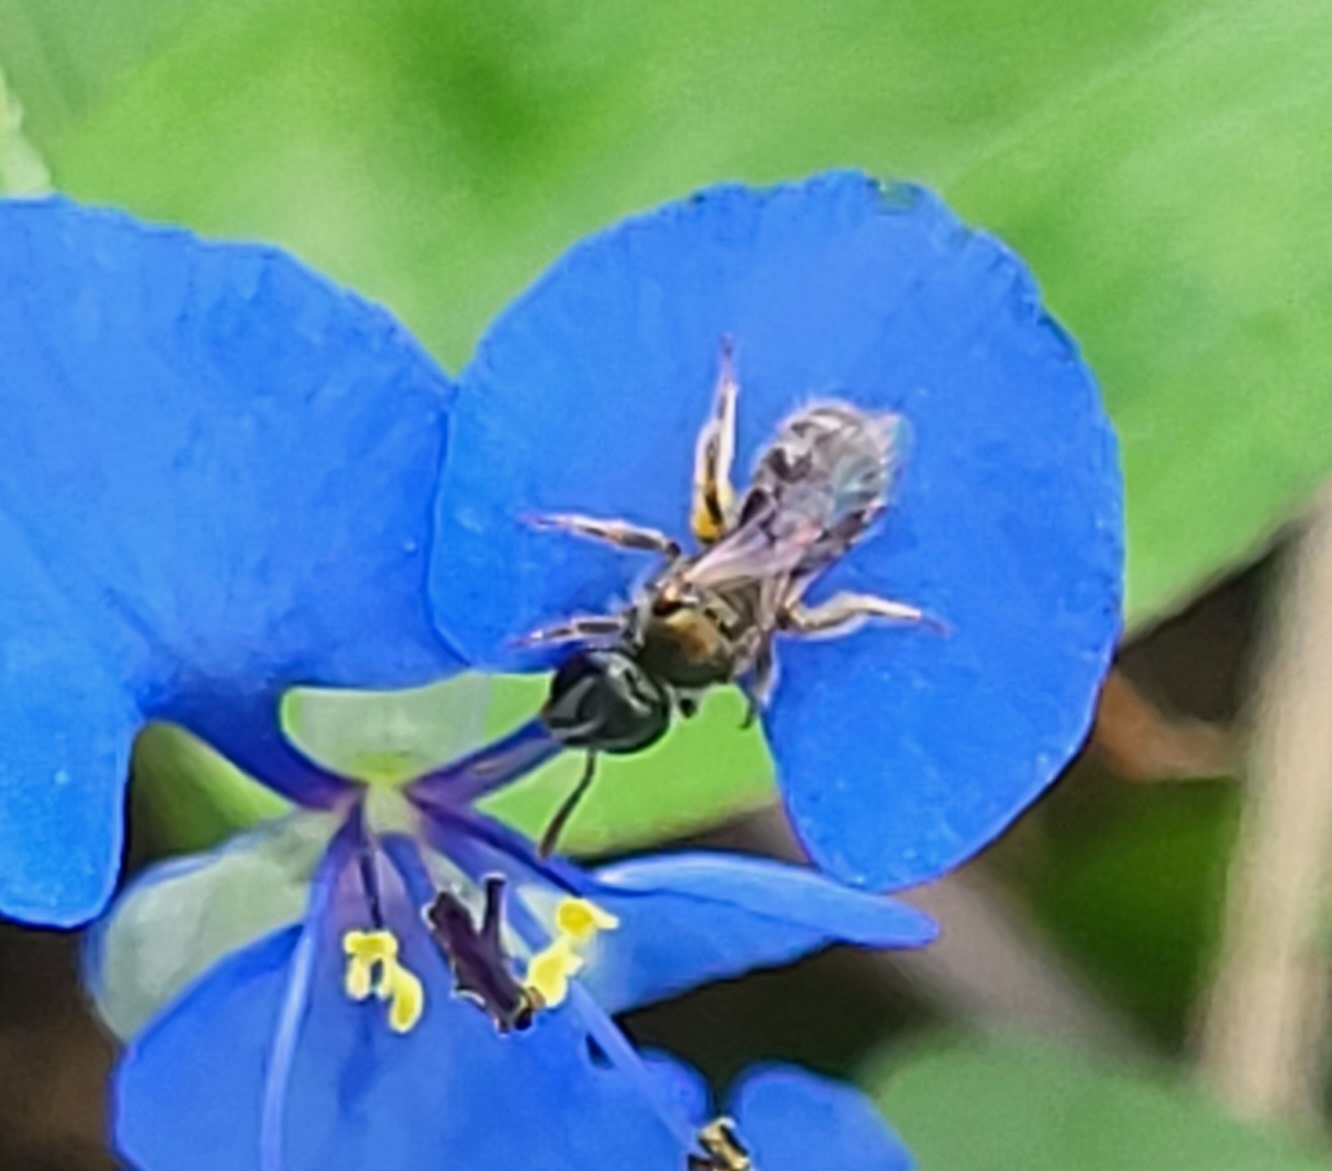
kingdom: Animalia
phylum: Arthropoda
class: Insecta
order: Hymenoptera
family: Halictidae
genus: Dialictus
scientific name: Dialictus
